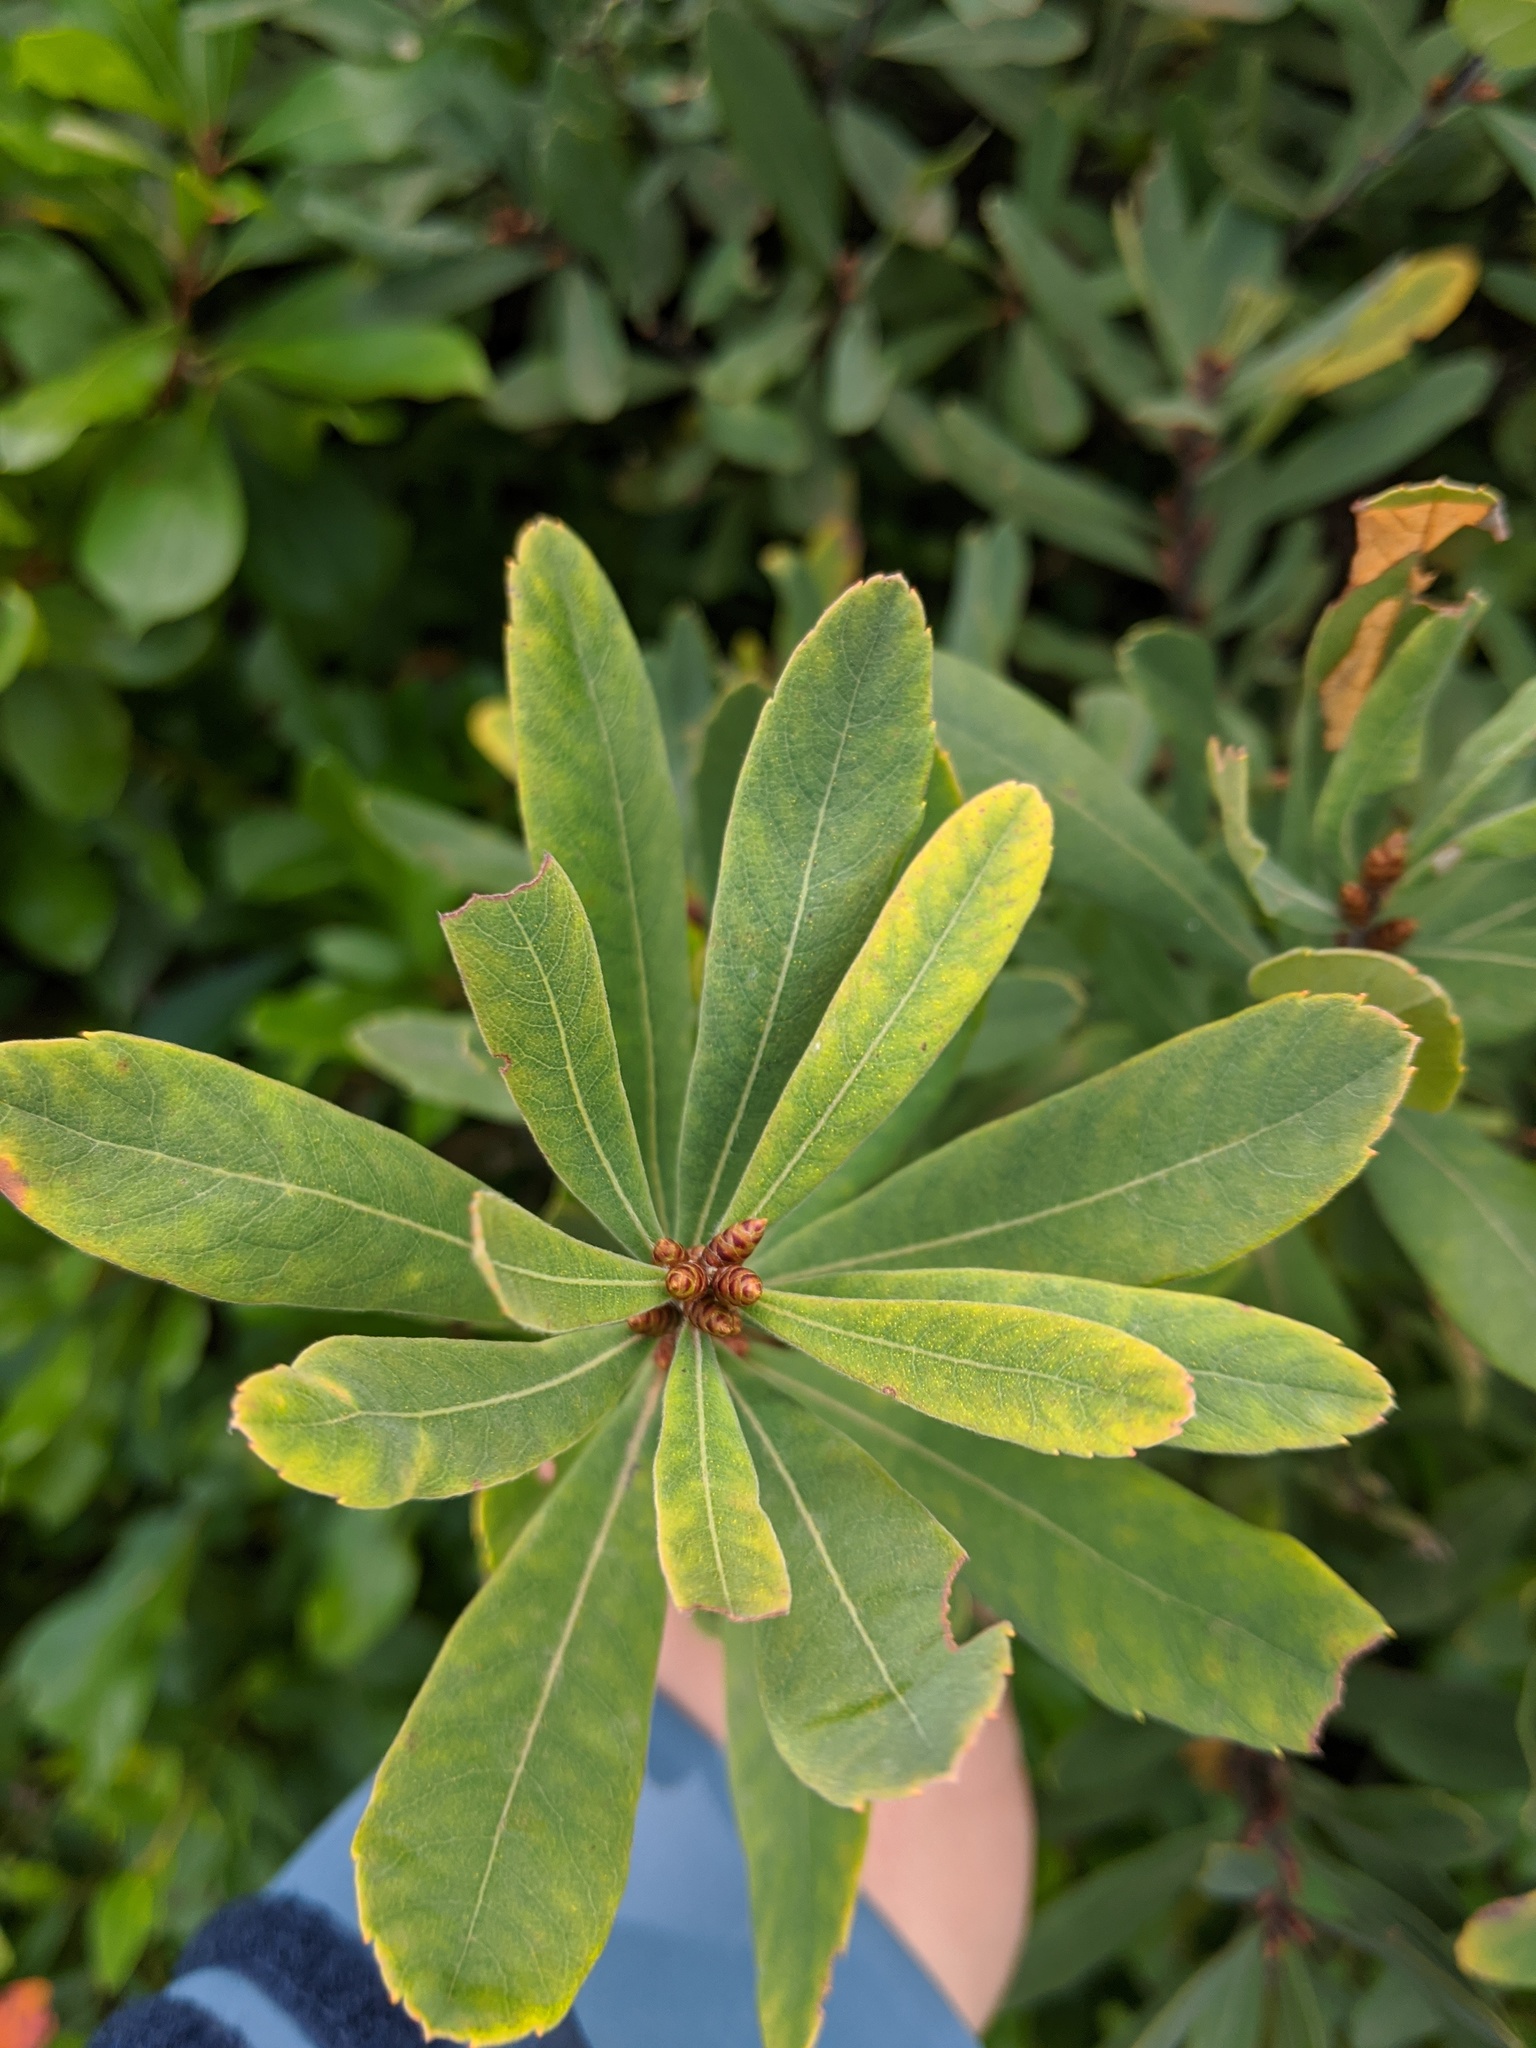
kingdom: Plantae
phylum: Tracheophyta
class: Magnoliopsida
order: Fagales
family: Myricaceae
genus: Myrica
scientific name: Myrica gale
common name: Sweet gale
